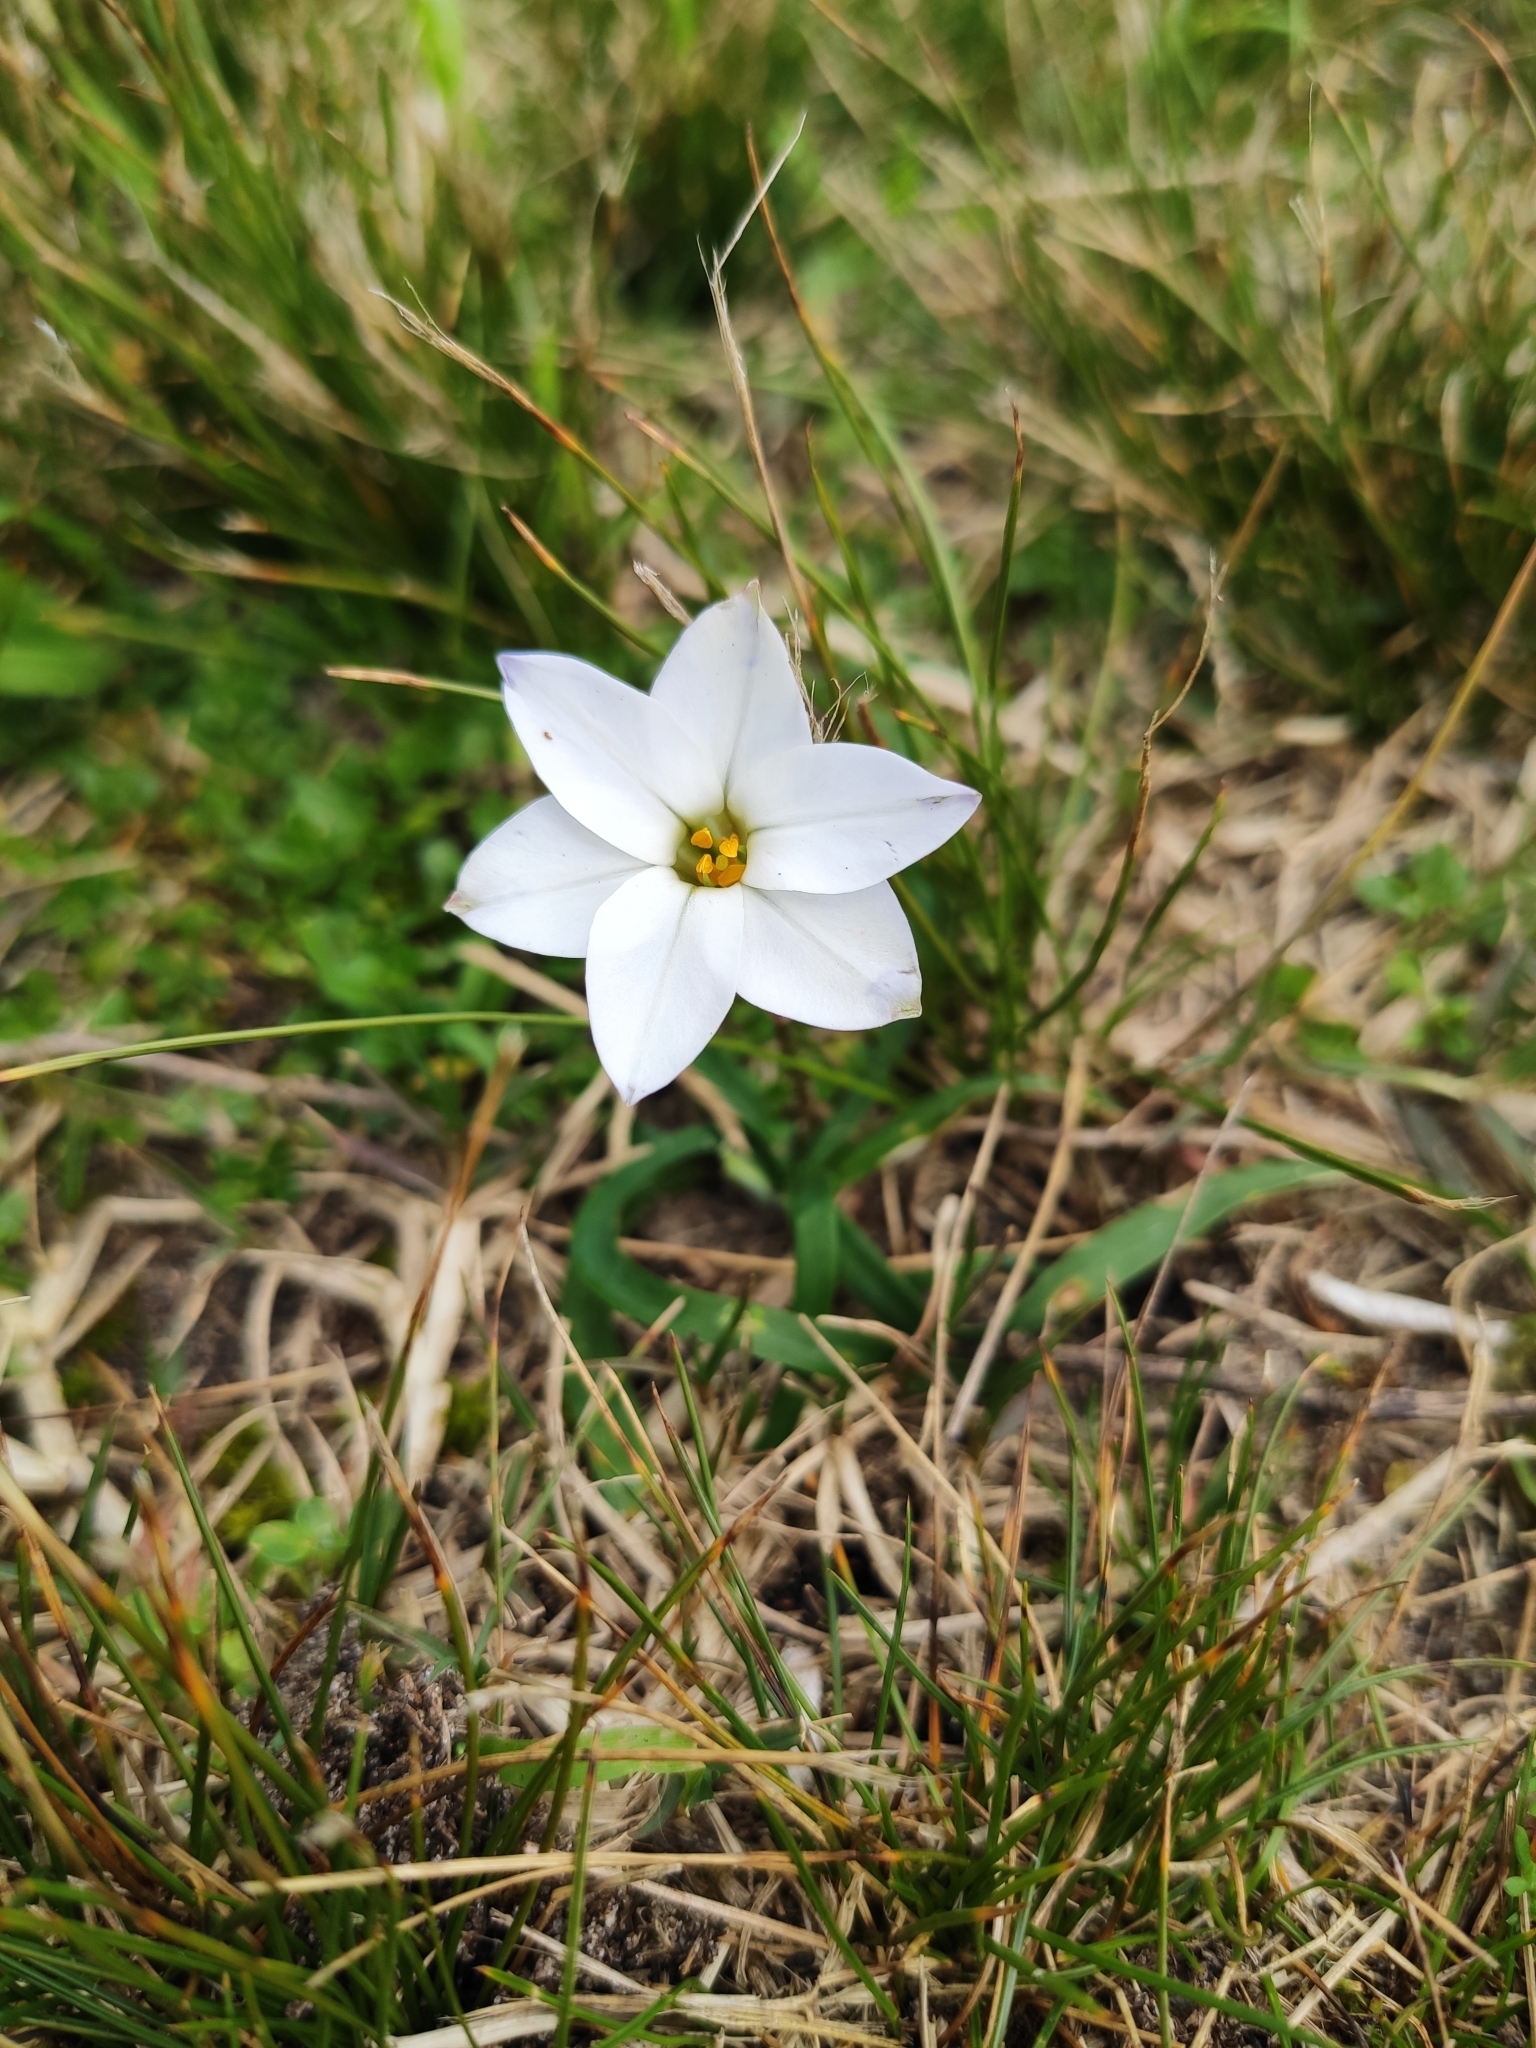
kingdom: Plantae
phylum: Tracheophyta
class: Liliopsida
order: Asparagales
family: Amaryllidaceae
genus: Ipheion
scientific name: Ipheion uniflorum
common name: Spring starflower
